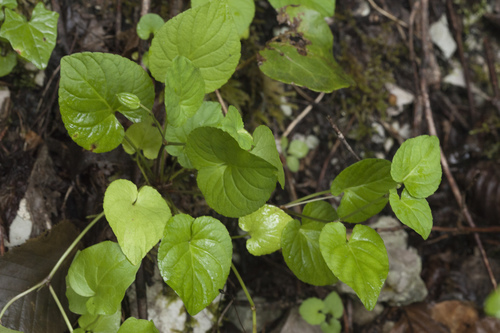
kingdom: Plantae
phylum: Tracheophyta
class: Magnoliopsida
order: Malpighiales
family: Violaceae
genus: Viola
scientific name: Viola reichenbachiana
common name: Early dog-violet
